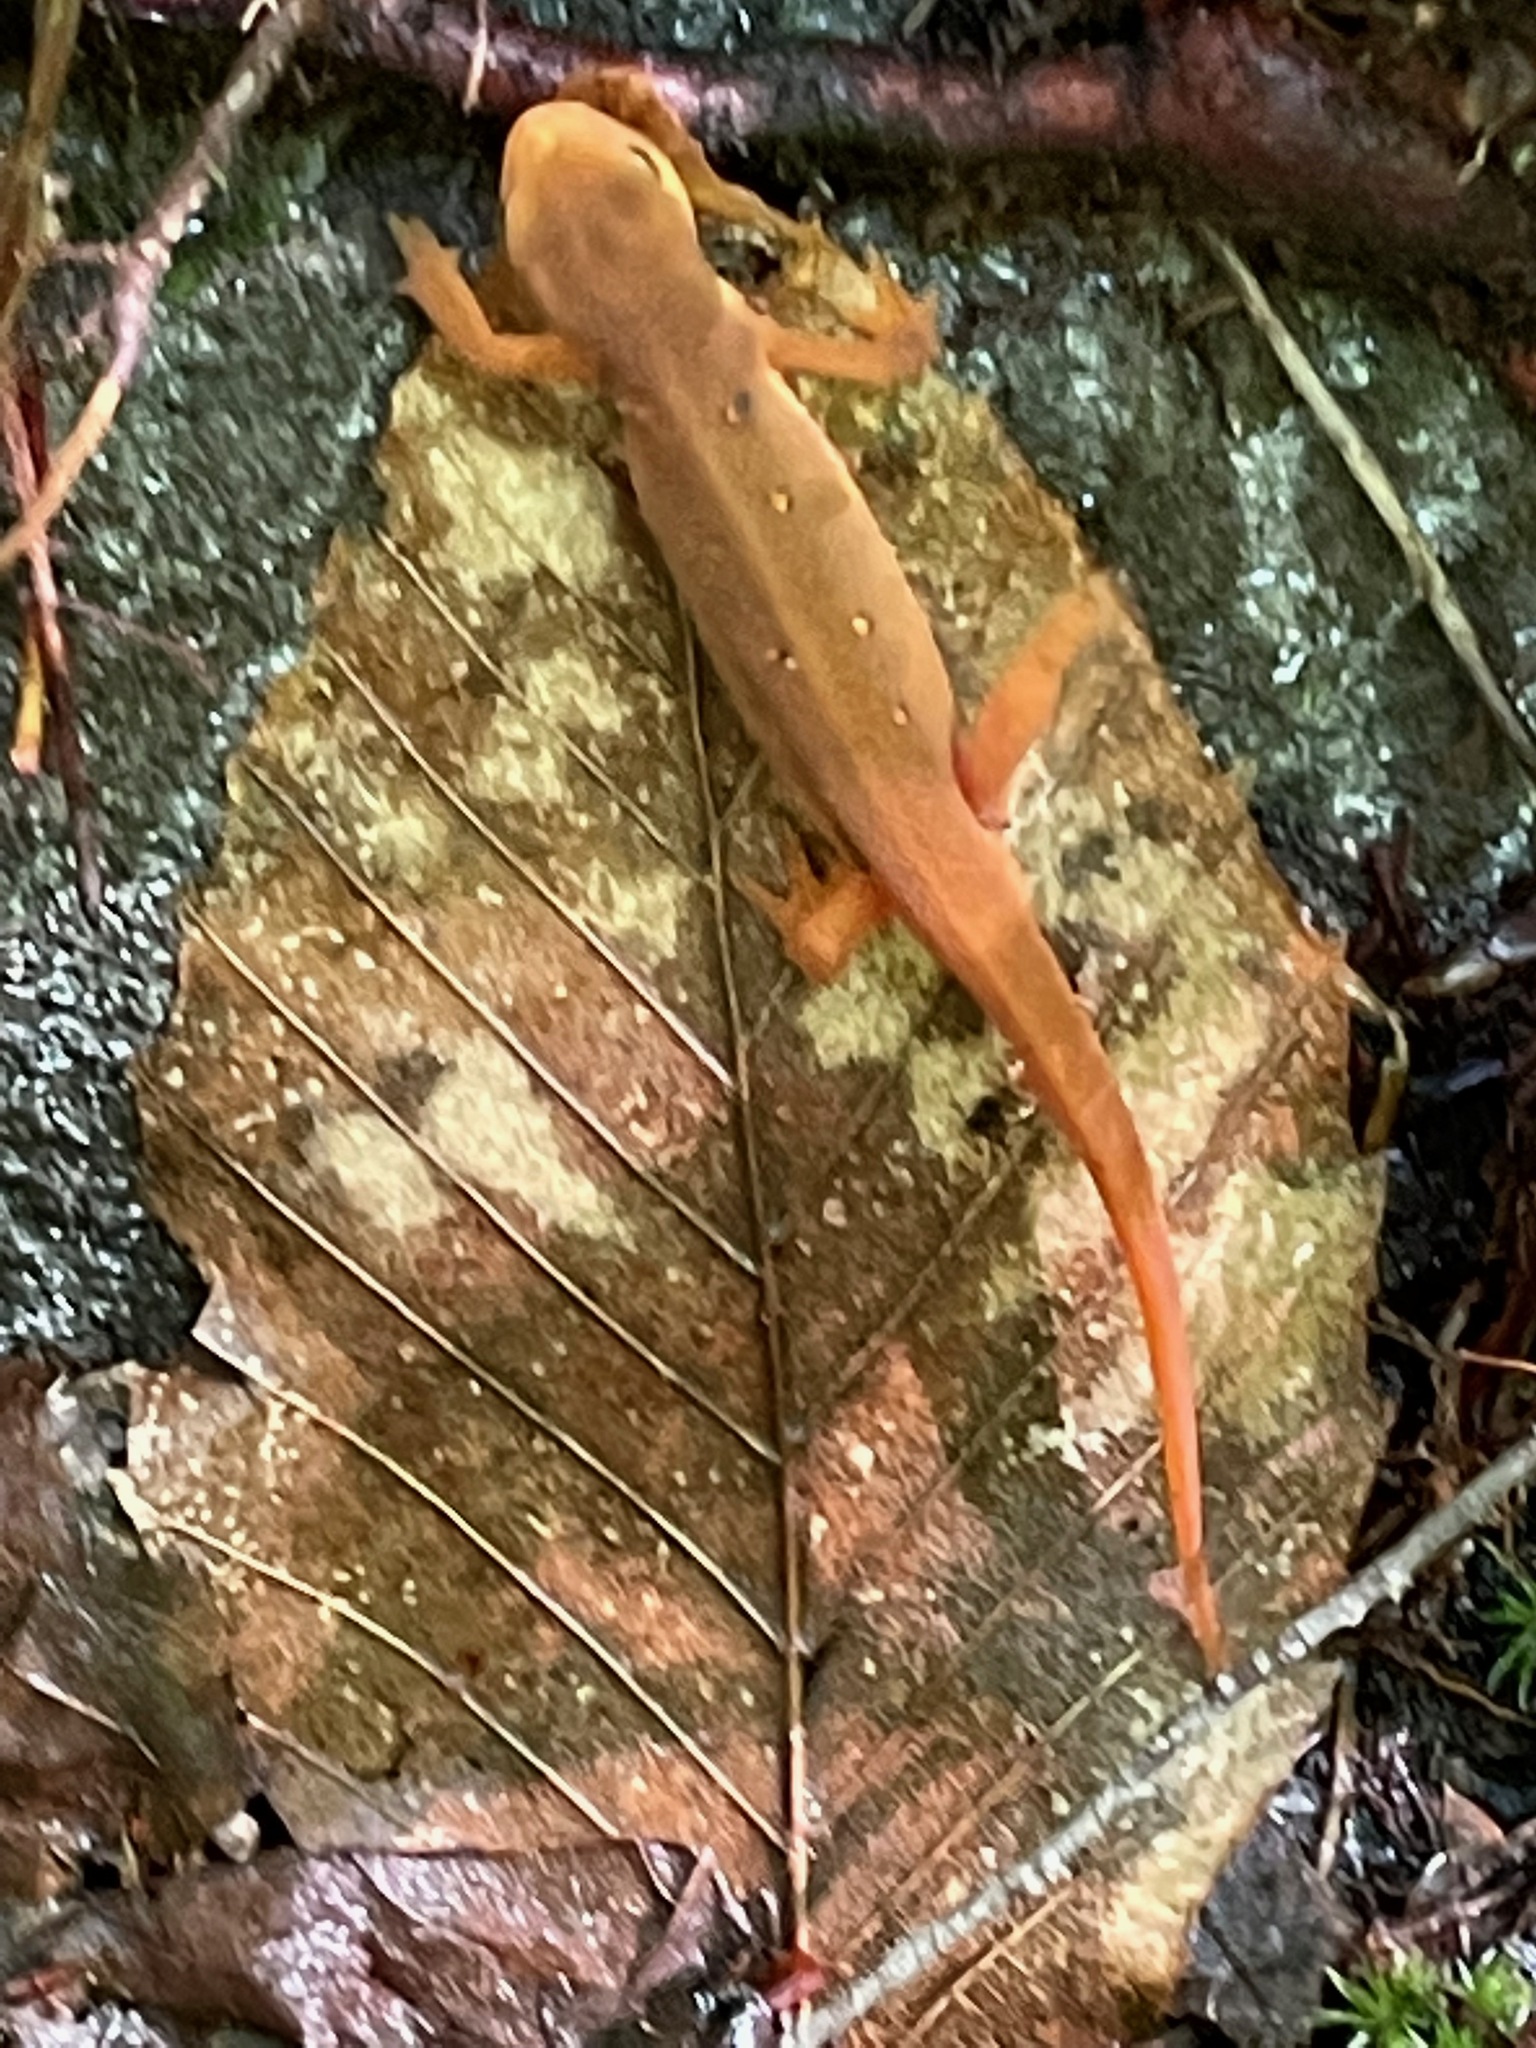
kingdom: Animalia
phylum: Chordata
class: Amphibia
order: Caudata
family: Salamandridae
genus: Notophthalmus
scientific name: Notophthalmus viridescens
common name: Eastern newt
